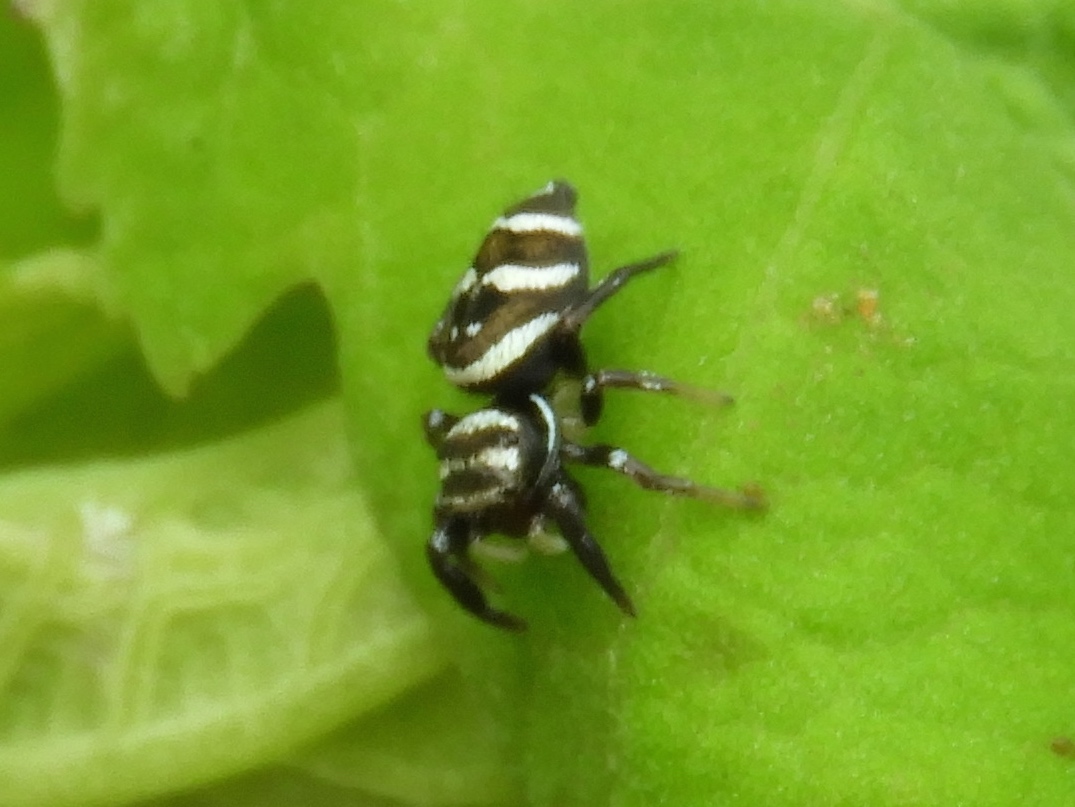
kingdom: Animalia
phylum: Arthropoda
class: Arachnida
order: Araneae
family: Salticidae
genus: Sassacus
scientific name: Sassacus
